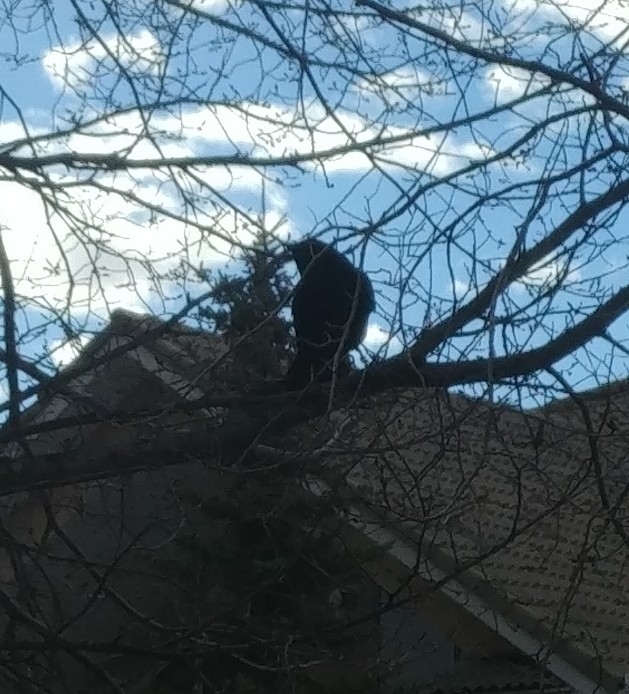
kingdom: Animalia
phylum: Chordata
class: Aves
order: Passeriformes
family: Corvidae
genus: Corvus
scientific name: Corvus brachyrhynchos
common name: American crow
